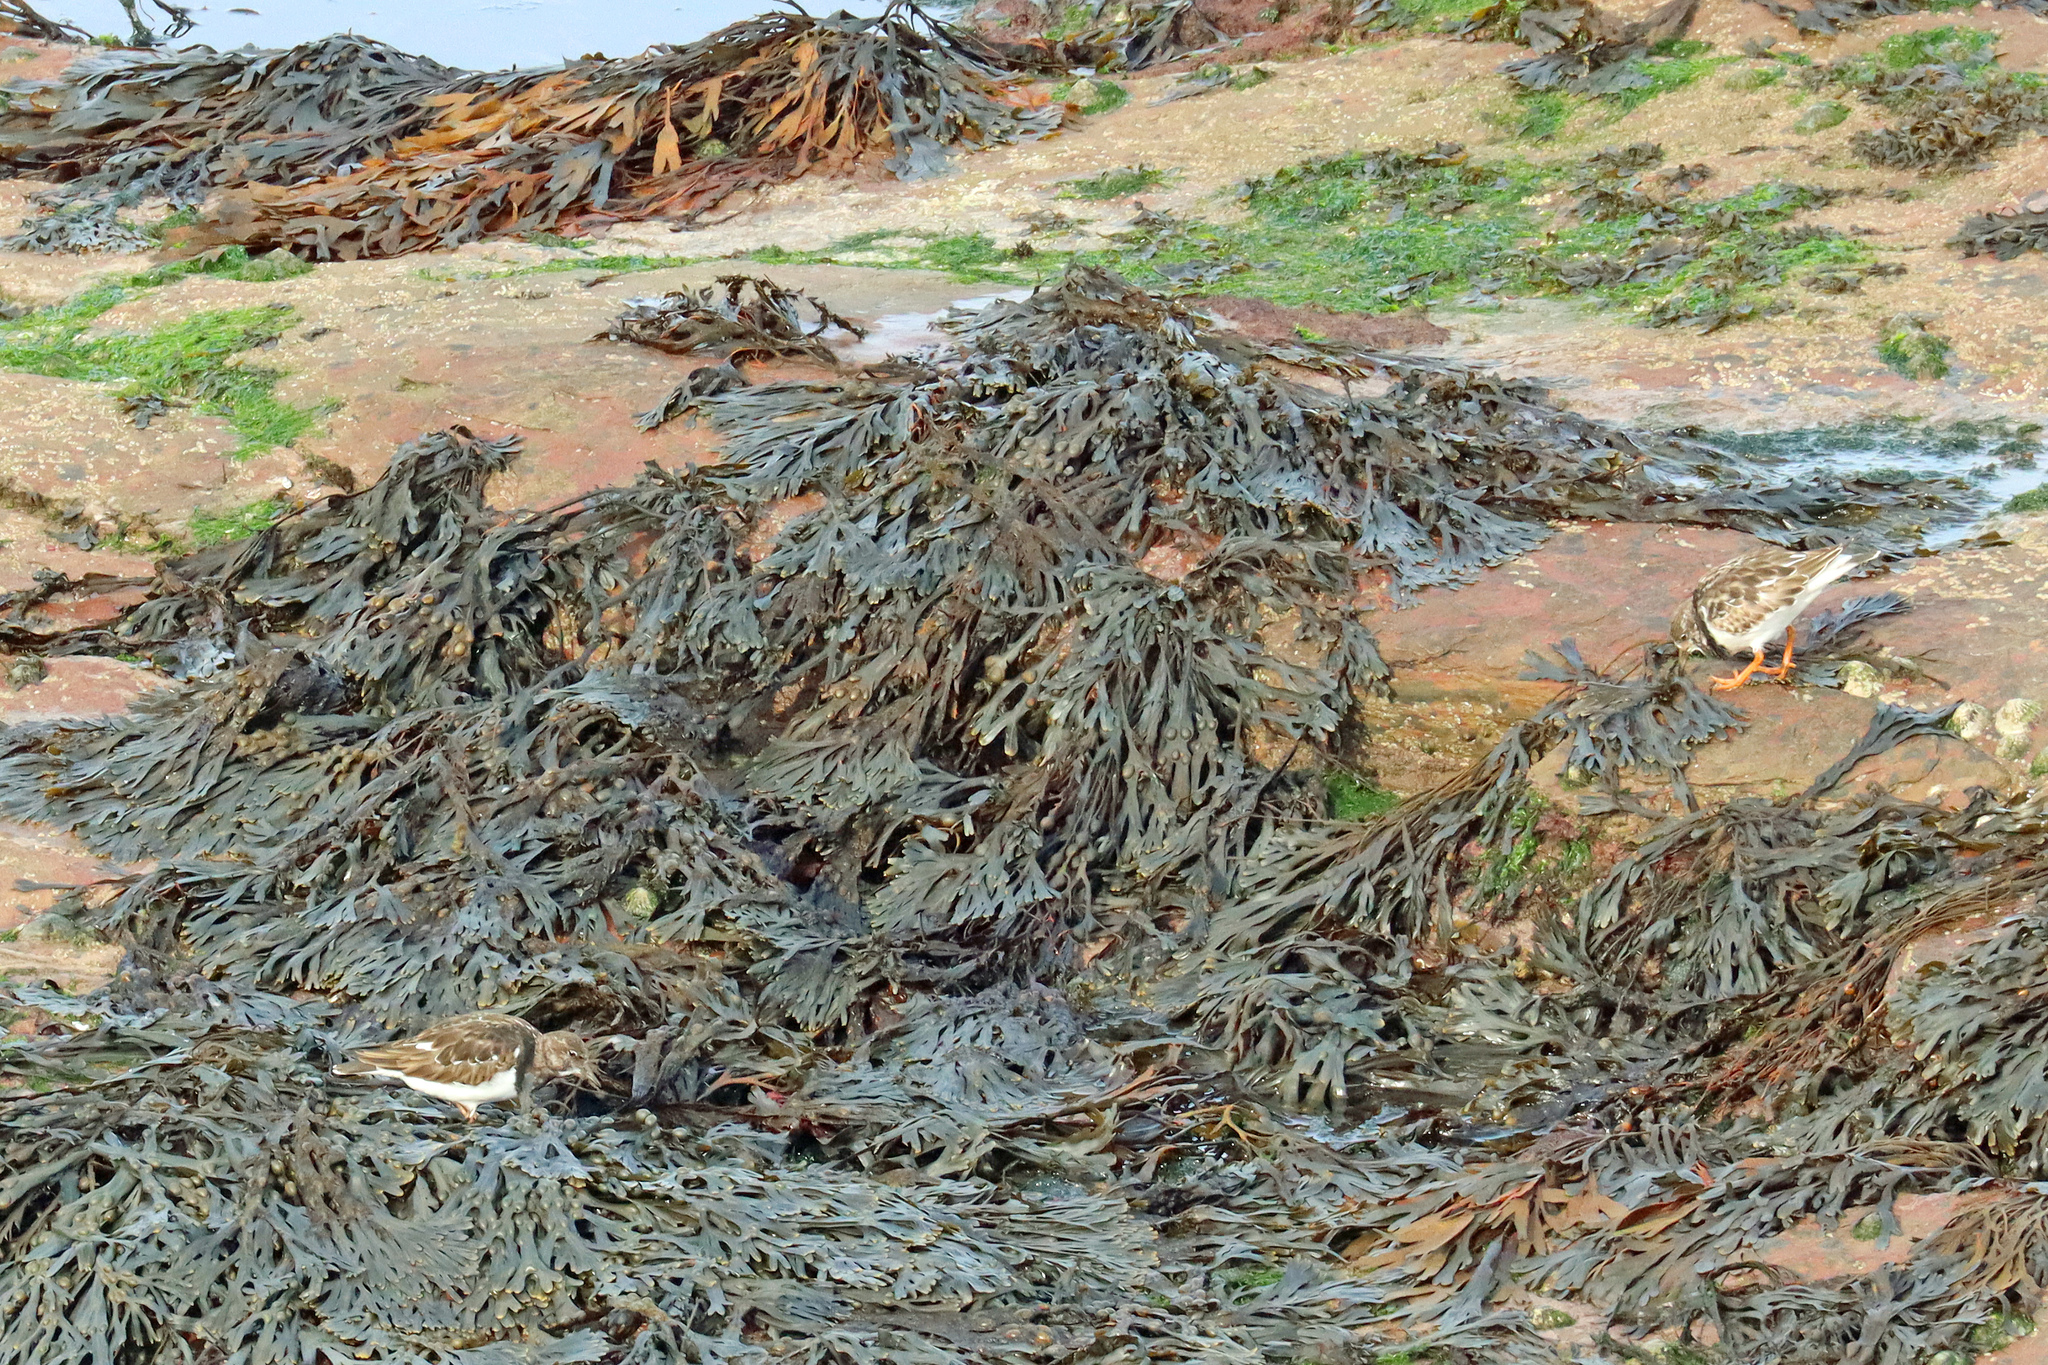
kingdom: Animalia
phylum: Chordata
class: Aves
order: Charadriiformes
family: Scolopacidae
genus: Arenaria
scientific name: Arenaria interpres
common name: Ruddy turnstone
